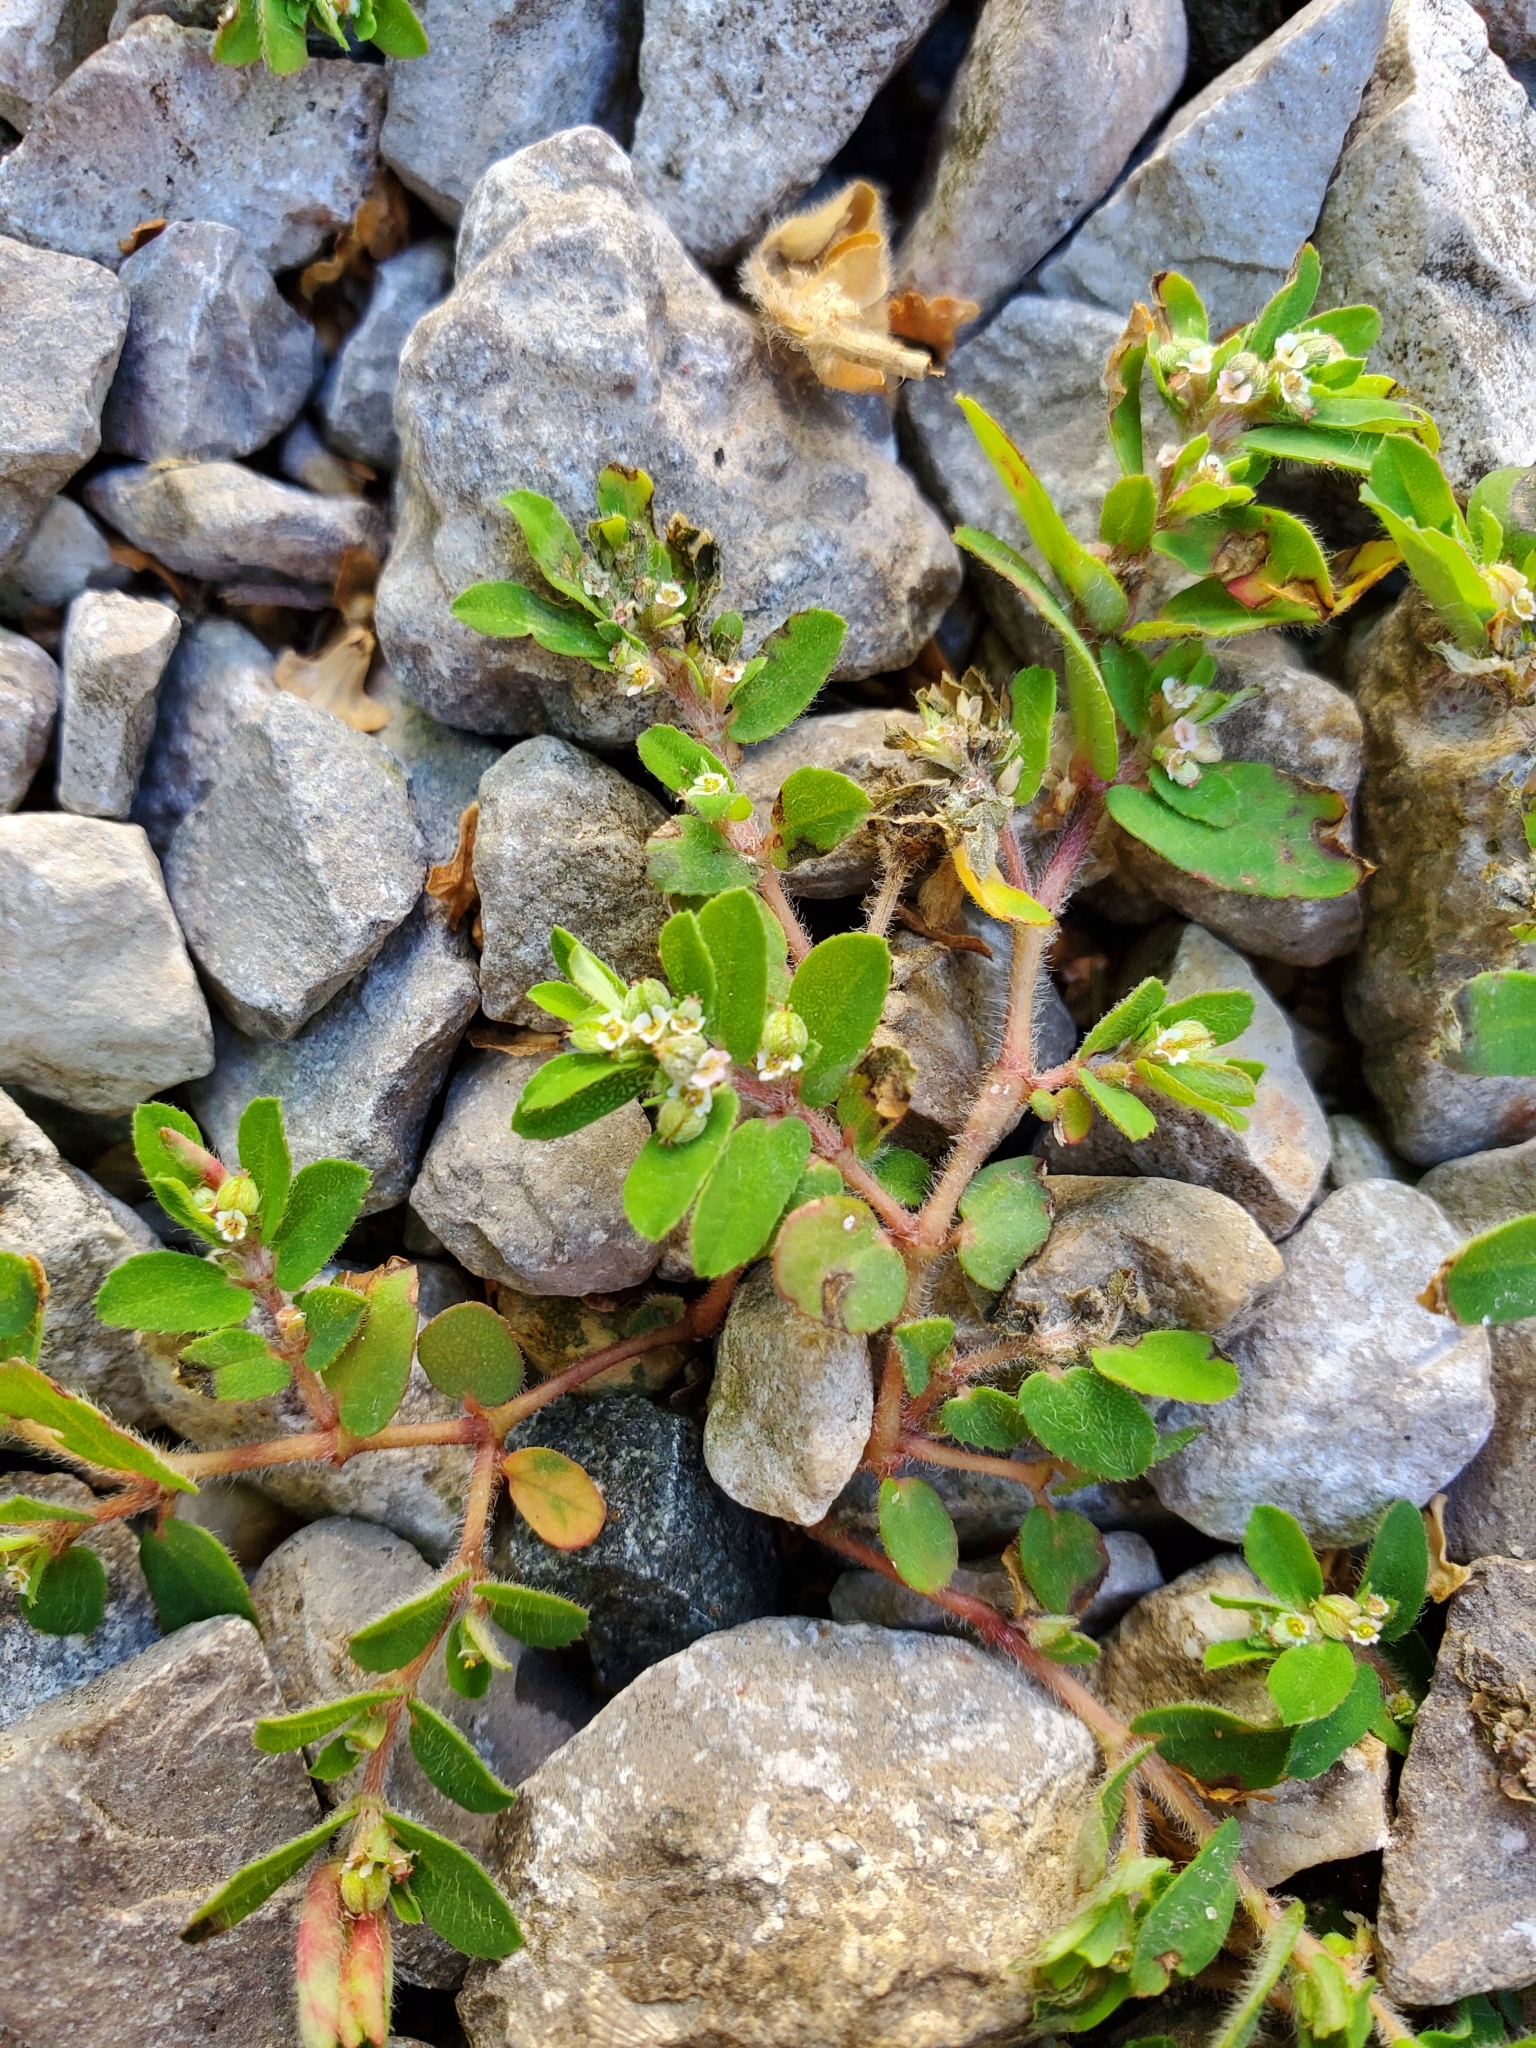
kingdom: Plantae
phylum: Tracheophyta
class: Magnoliopsida
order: Malpighiales
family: Euphorbiaceae
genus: Euphorbia
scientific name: Euphorbia maculata
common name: Spotted spurge
